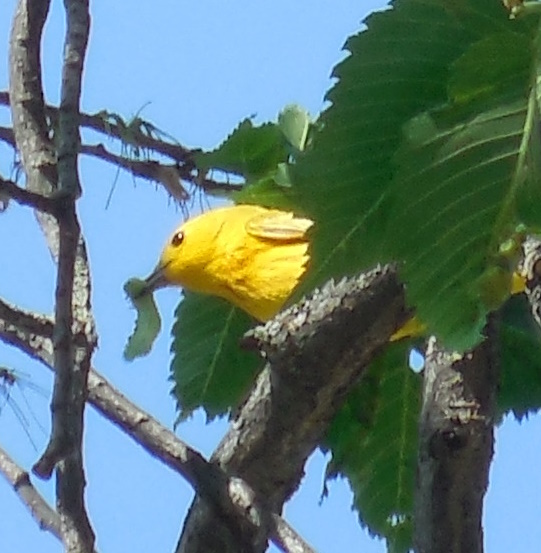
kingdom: Animalia
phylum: Chordata
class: Aves
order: Passeriformes
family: Parulidae
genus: Setophaga
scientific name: Setophaga petechia
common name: Yellow warbler
